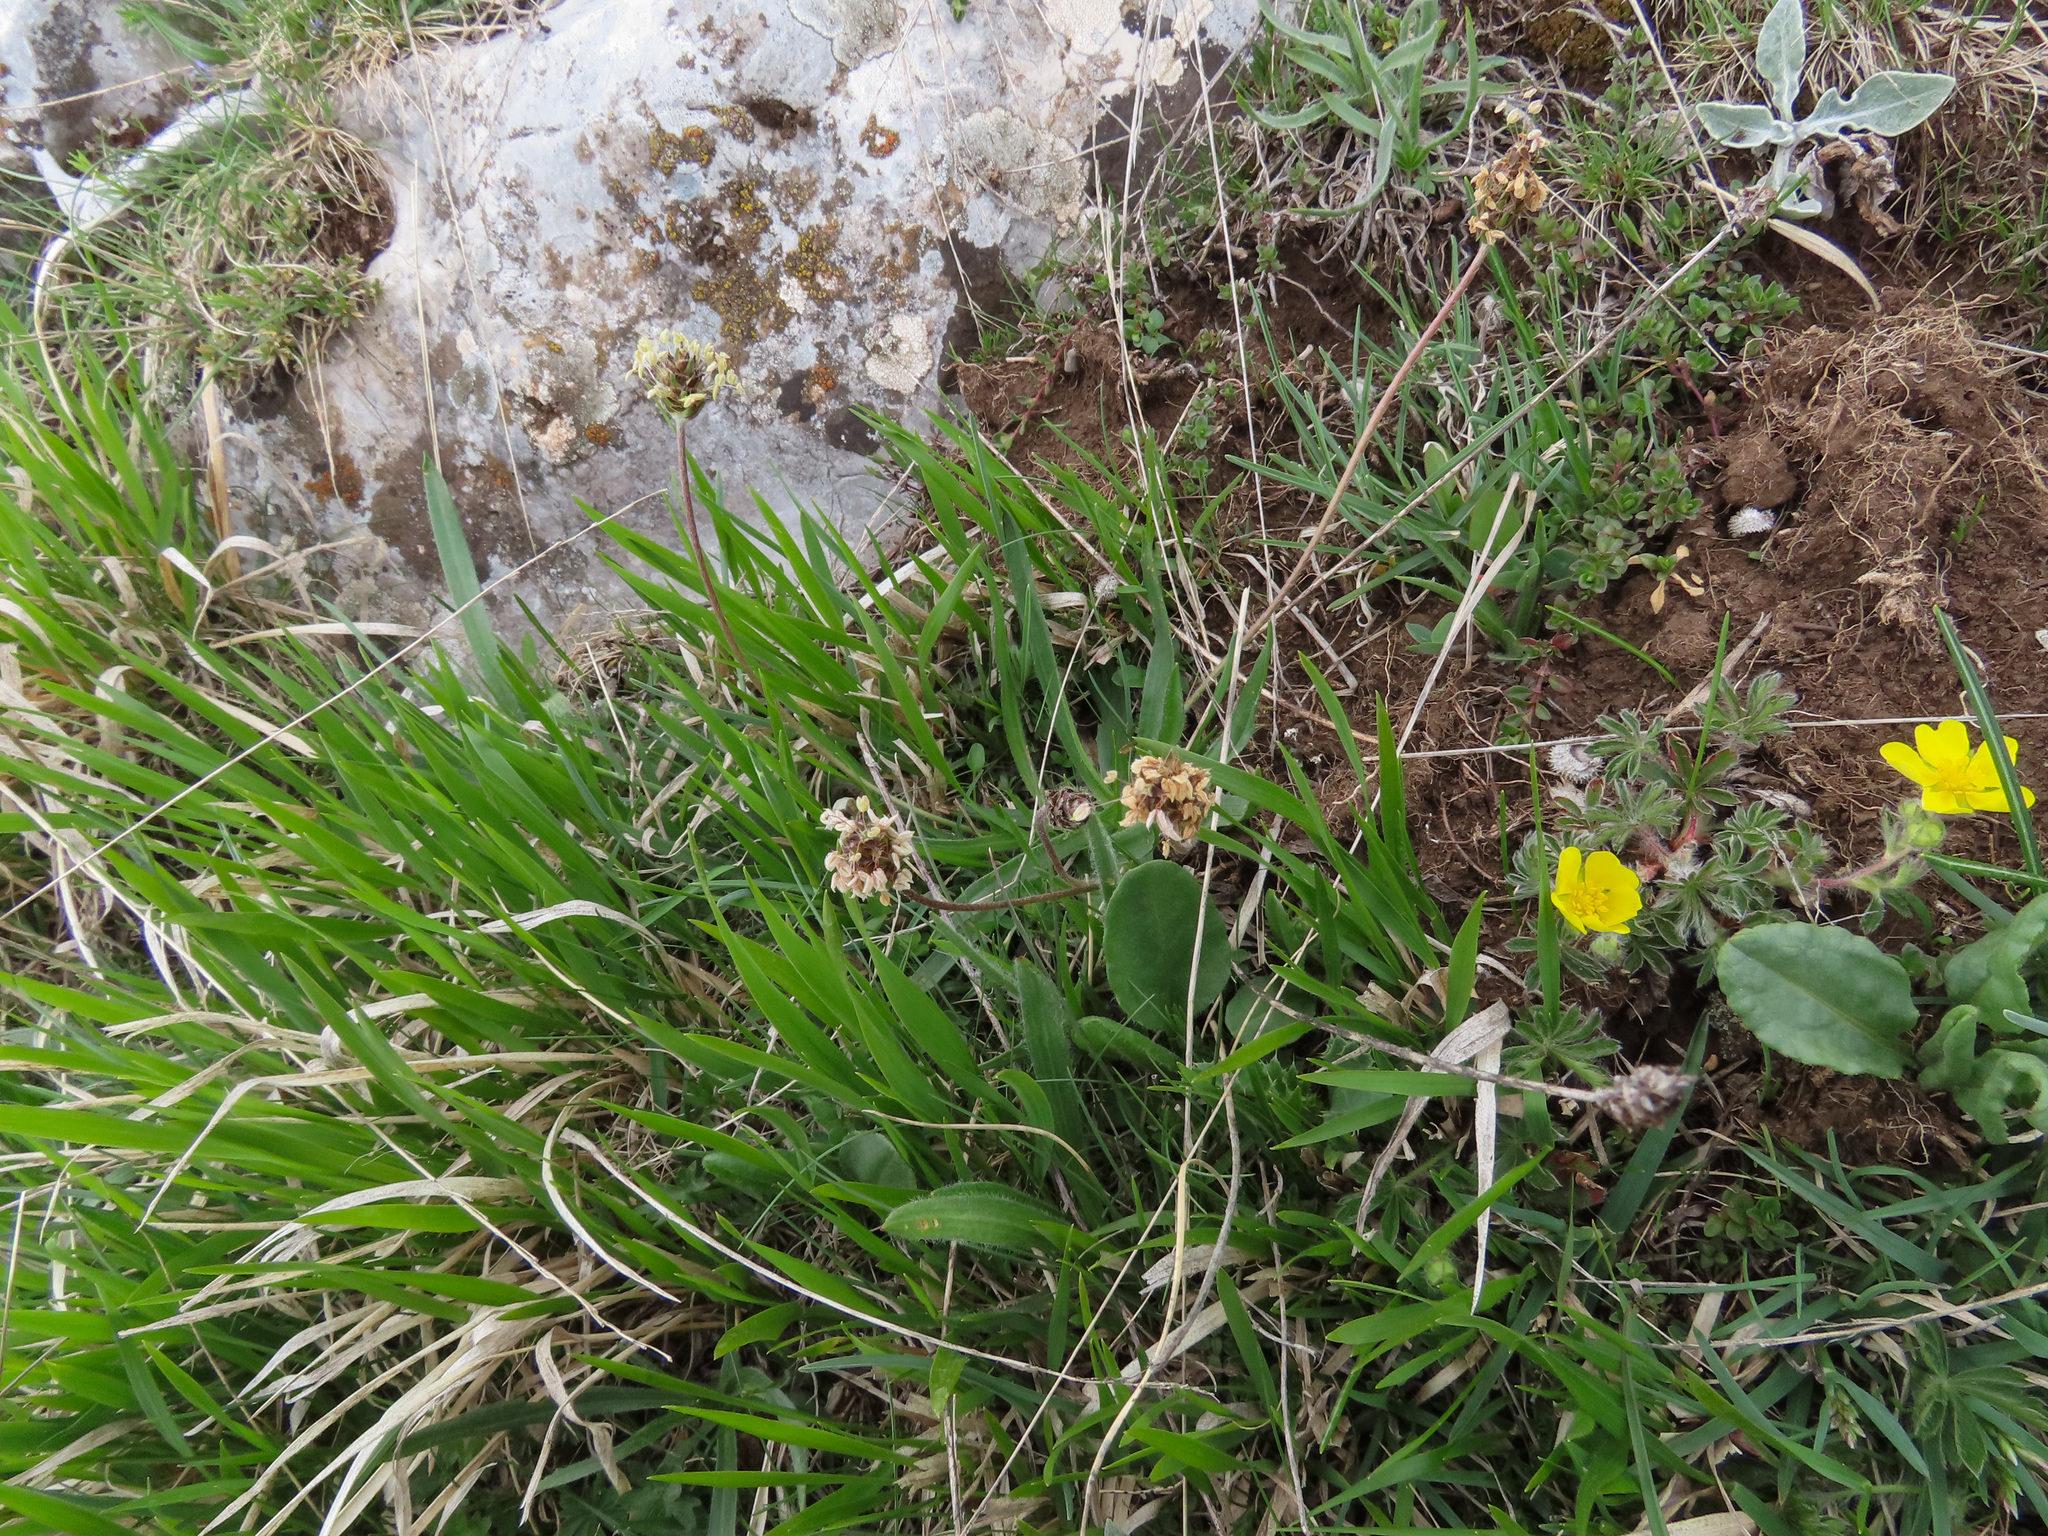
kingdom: Plantae
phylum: Tracheophyta
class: Magnoliopsida
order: Lamiales
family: Plantaginaceae
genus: Plantago
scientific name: Plantago atrata
